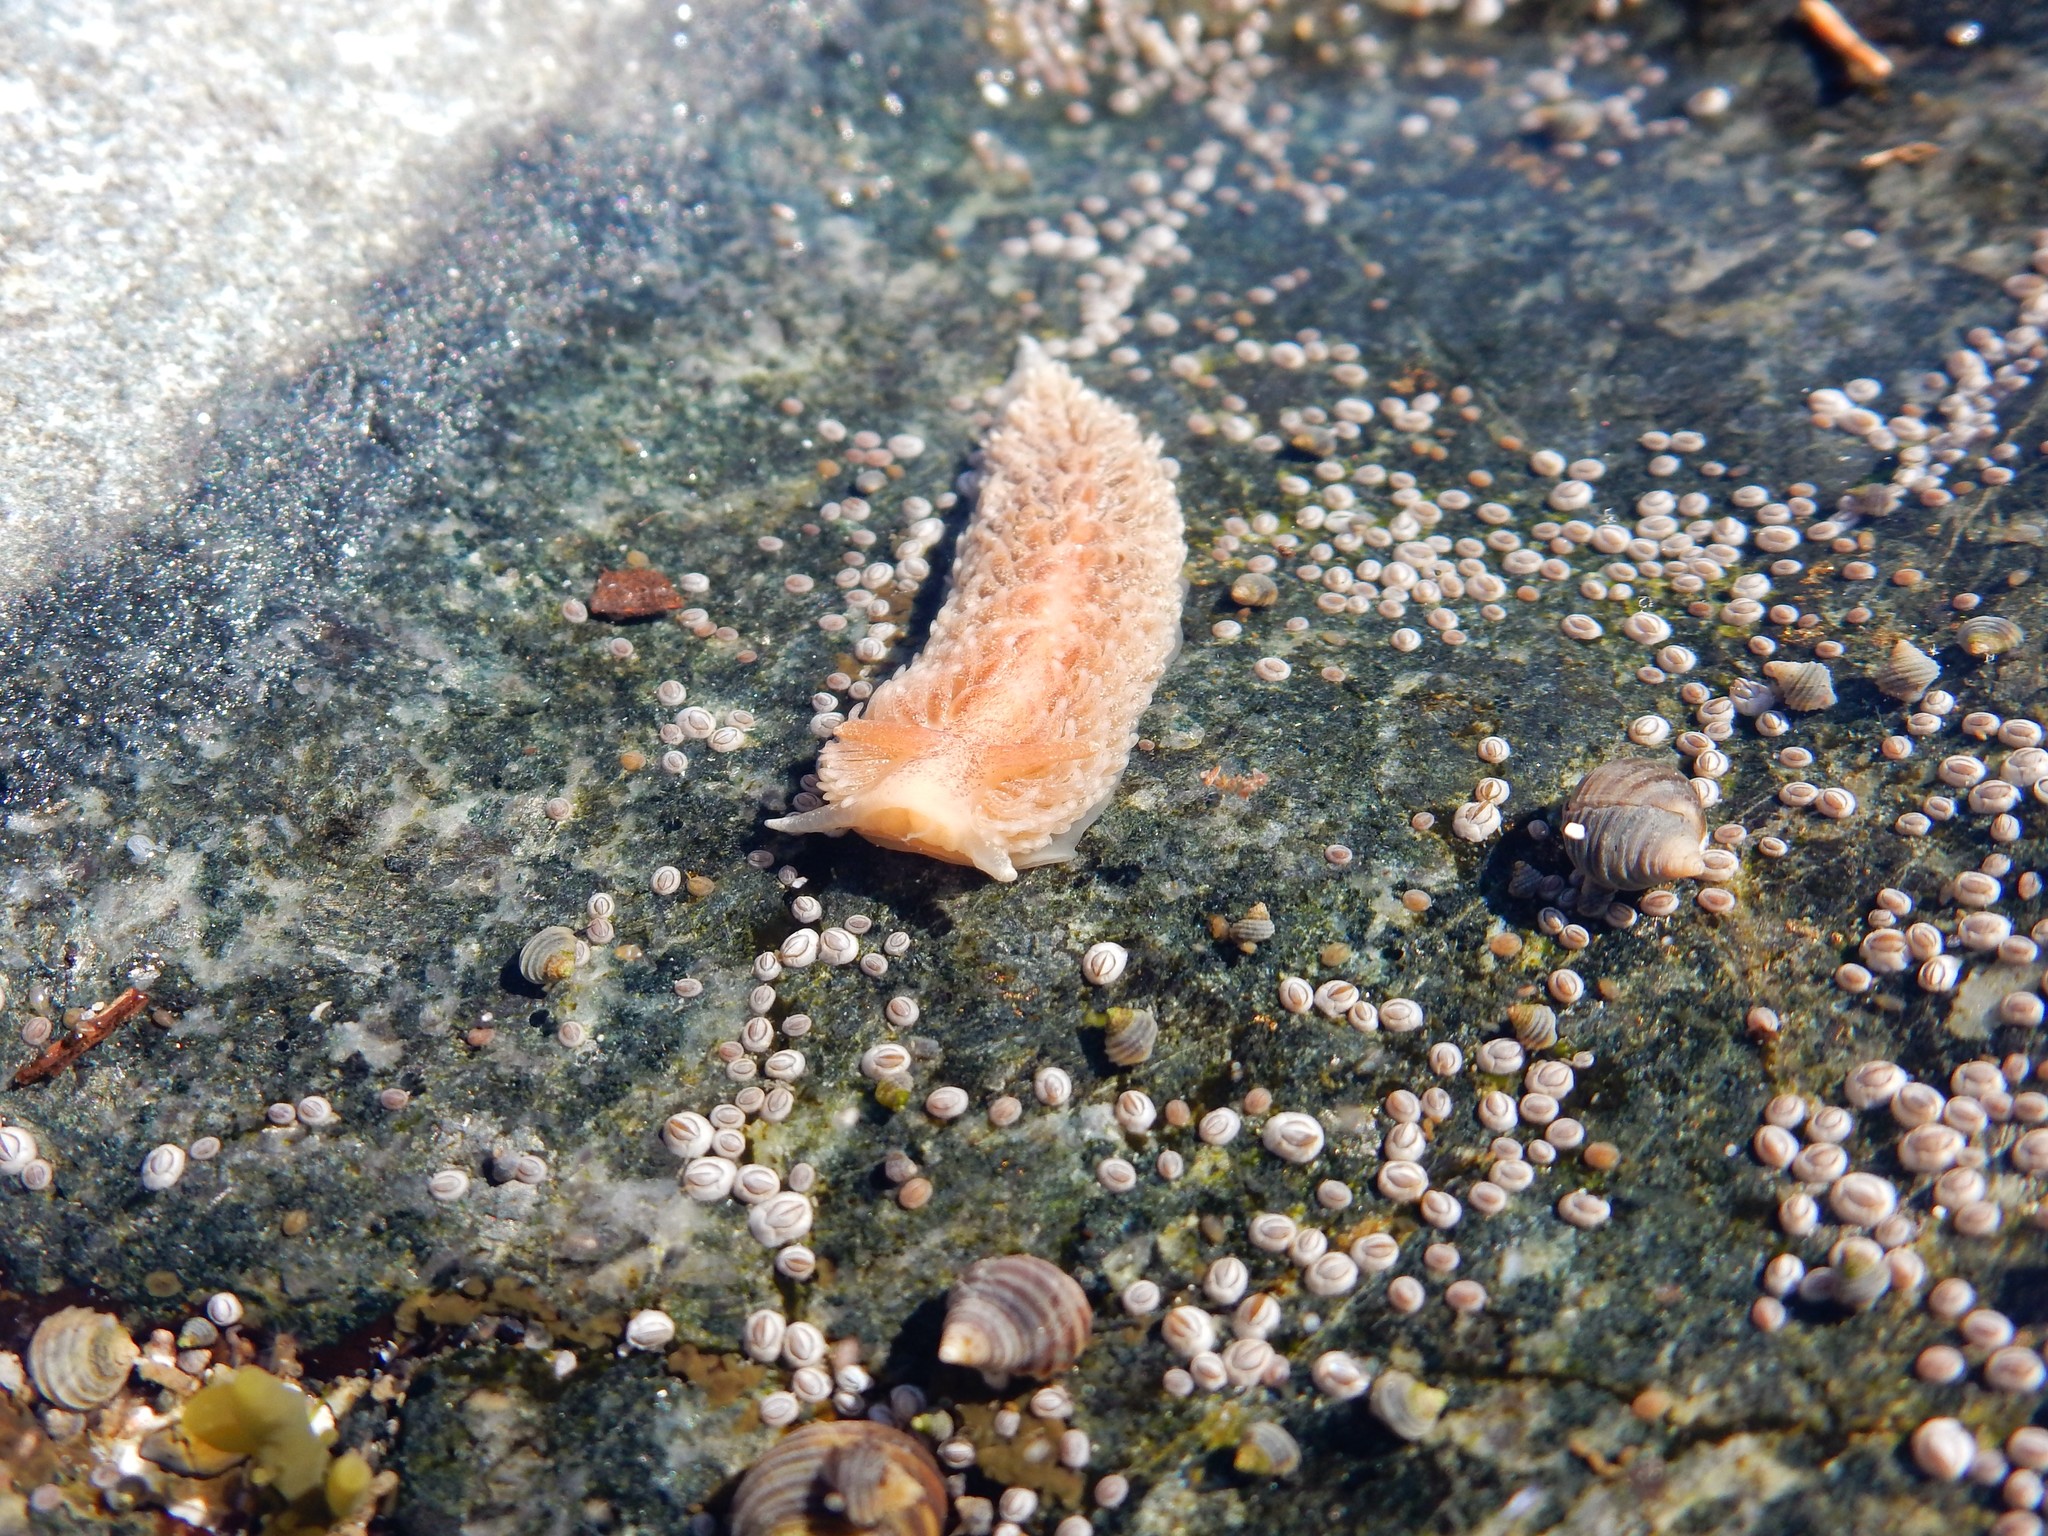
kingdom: Animalia
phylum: Mollusca
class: Gastropoda
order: Nudibranchia
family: Aeolidiidae
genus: Aeolidia
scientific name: Aeolidia papillosa
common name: Common grey sea slug
